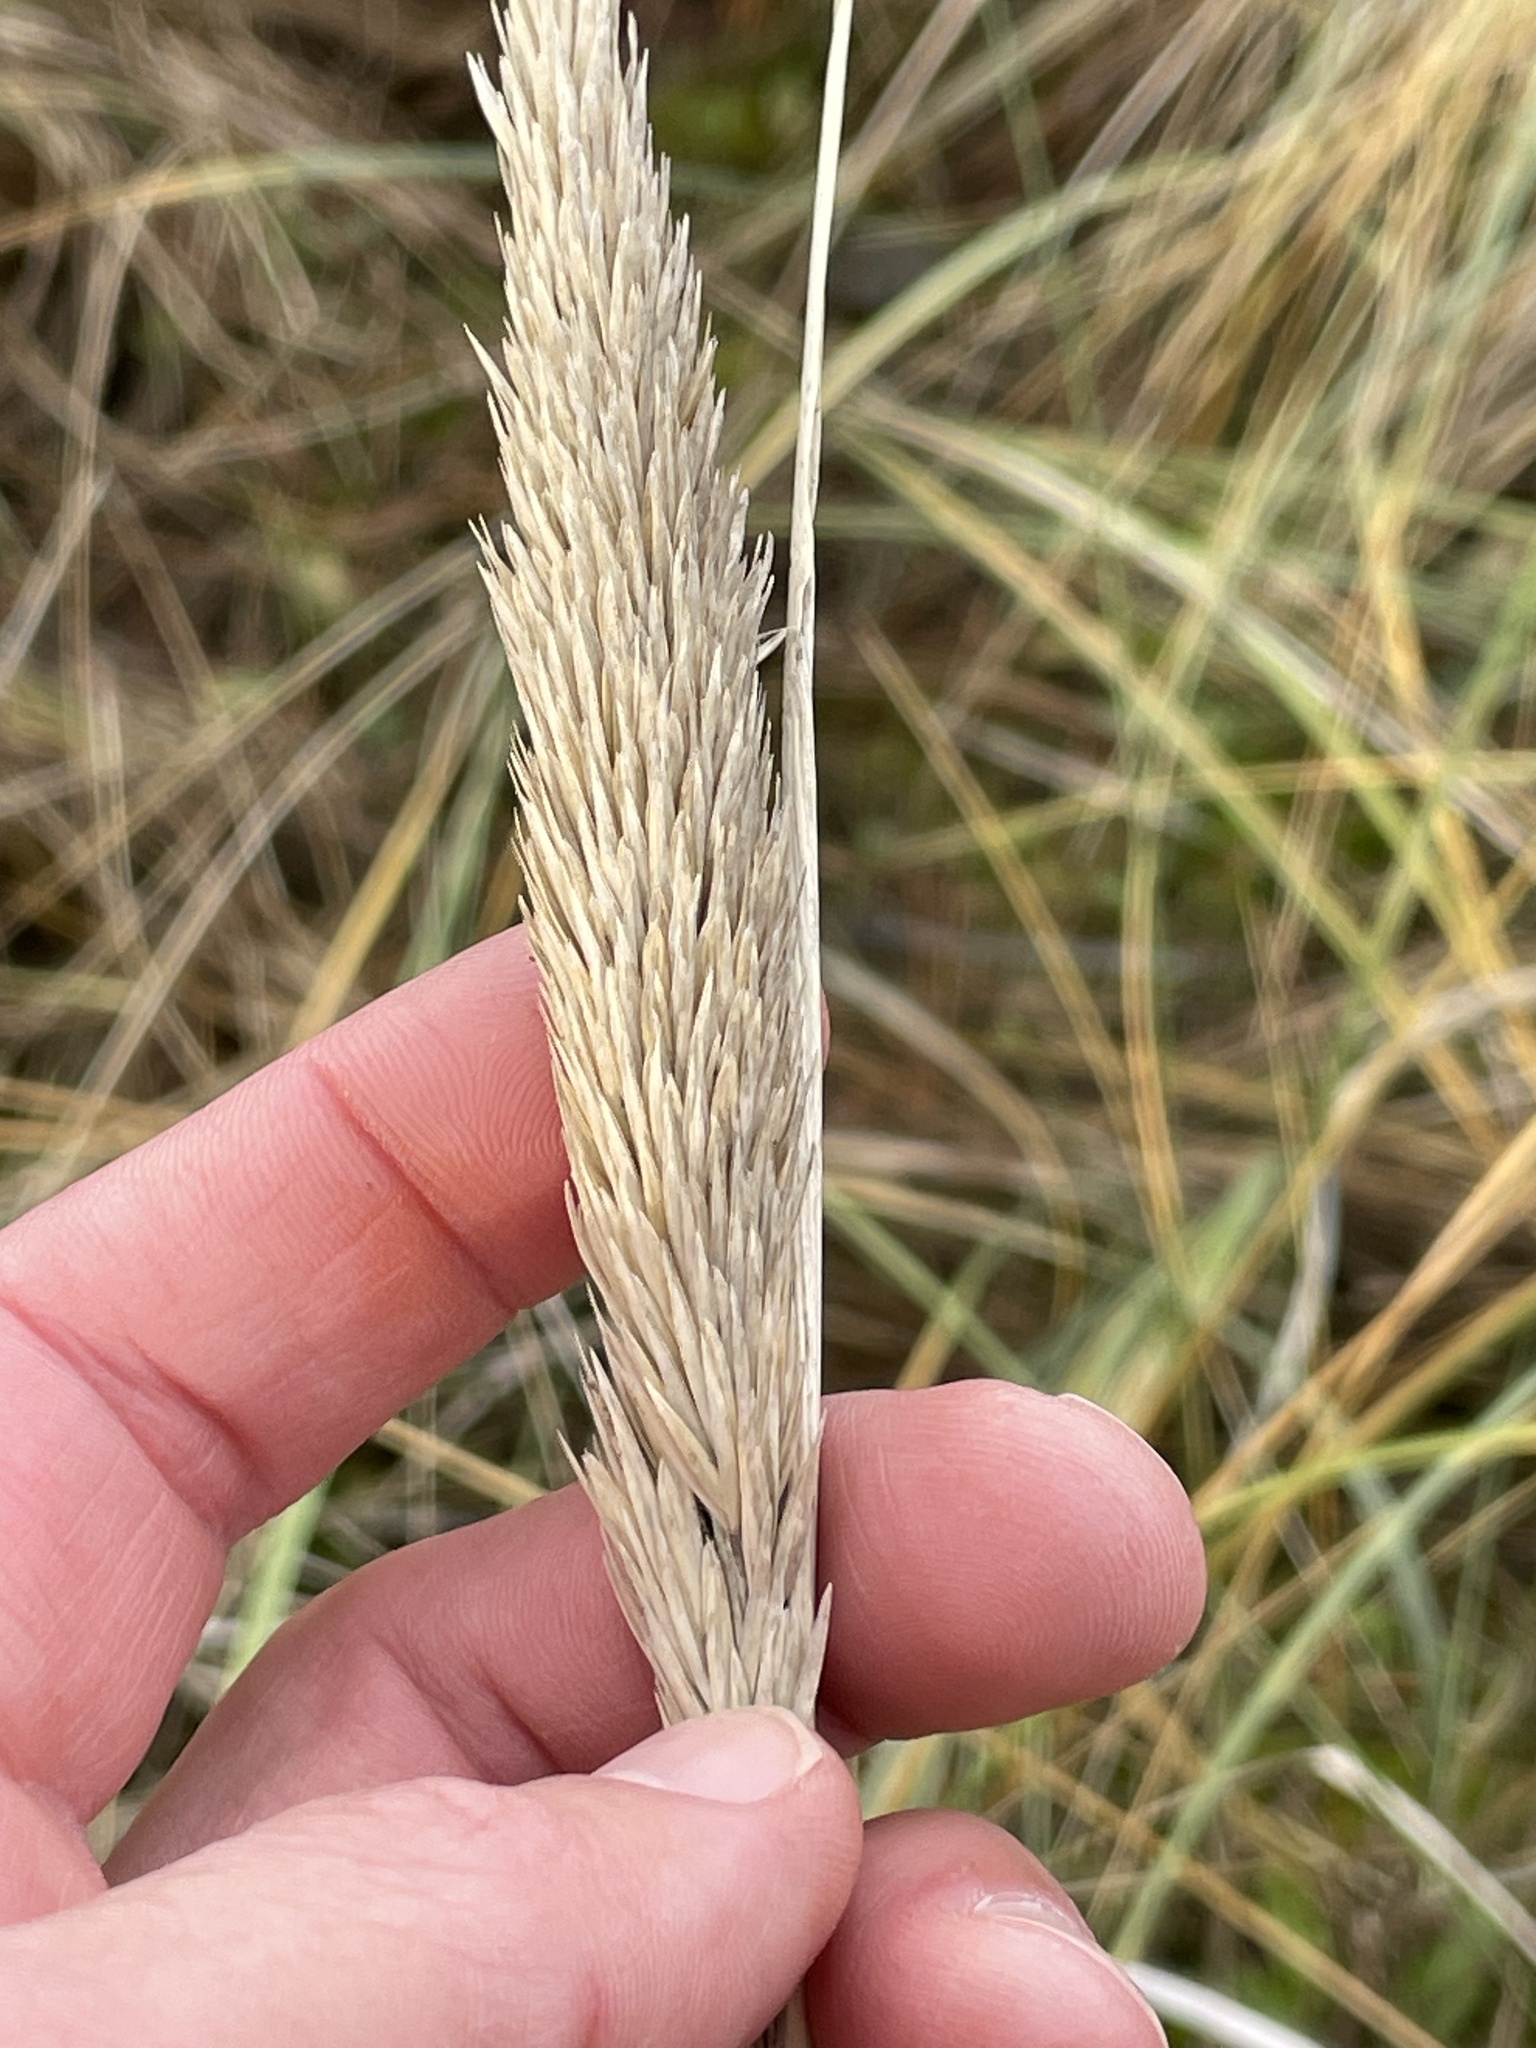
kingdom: Plantae
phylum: Tracheophyta
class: Liliopsida
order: Poales
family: Poaceae
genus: Calamagrostis
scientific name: Calamagrostis arenaria
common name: European beachgrass
